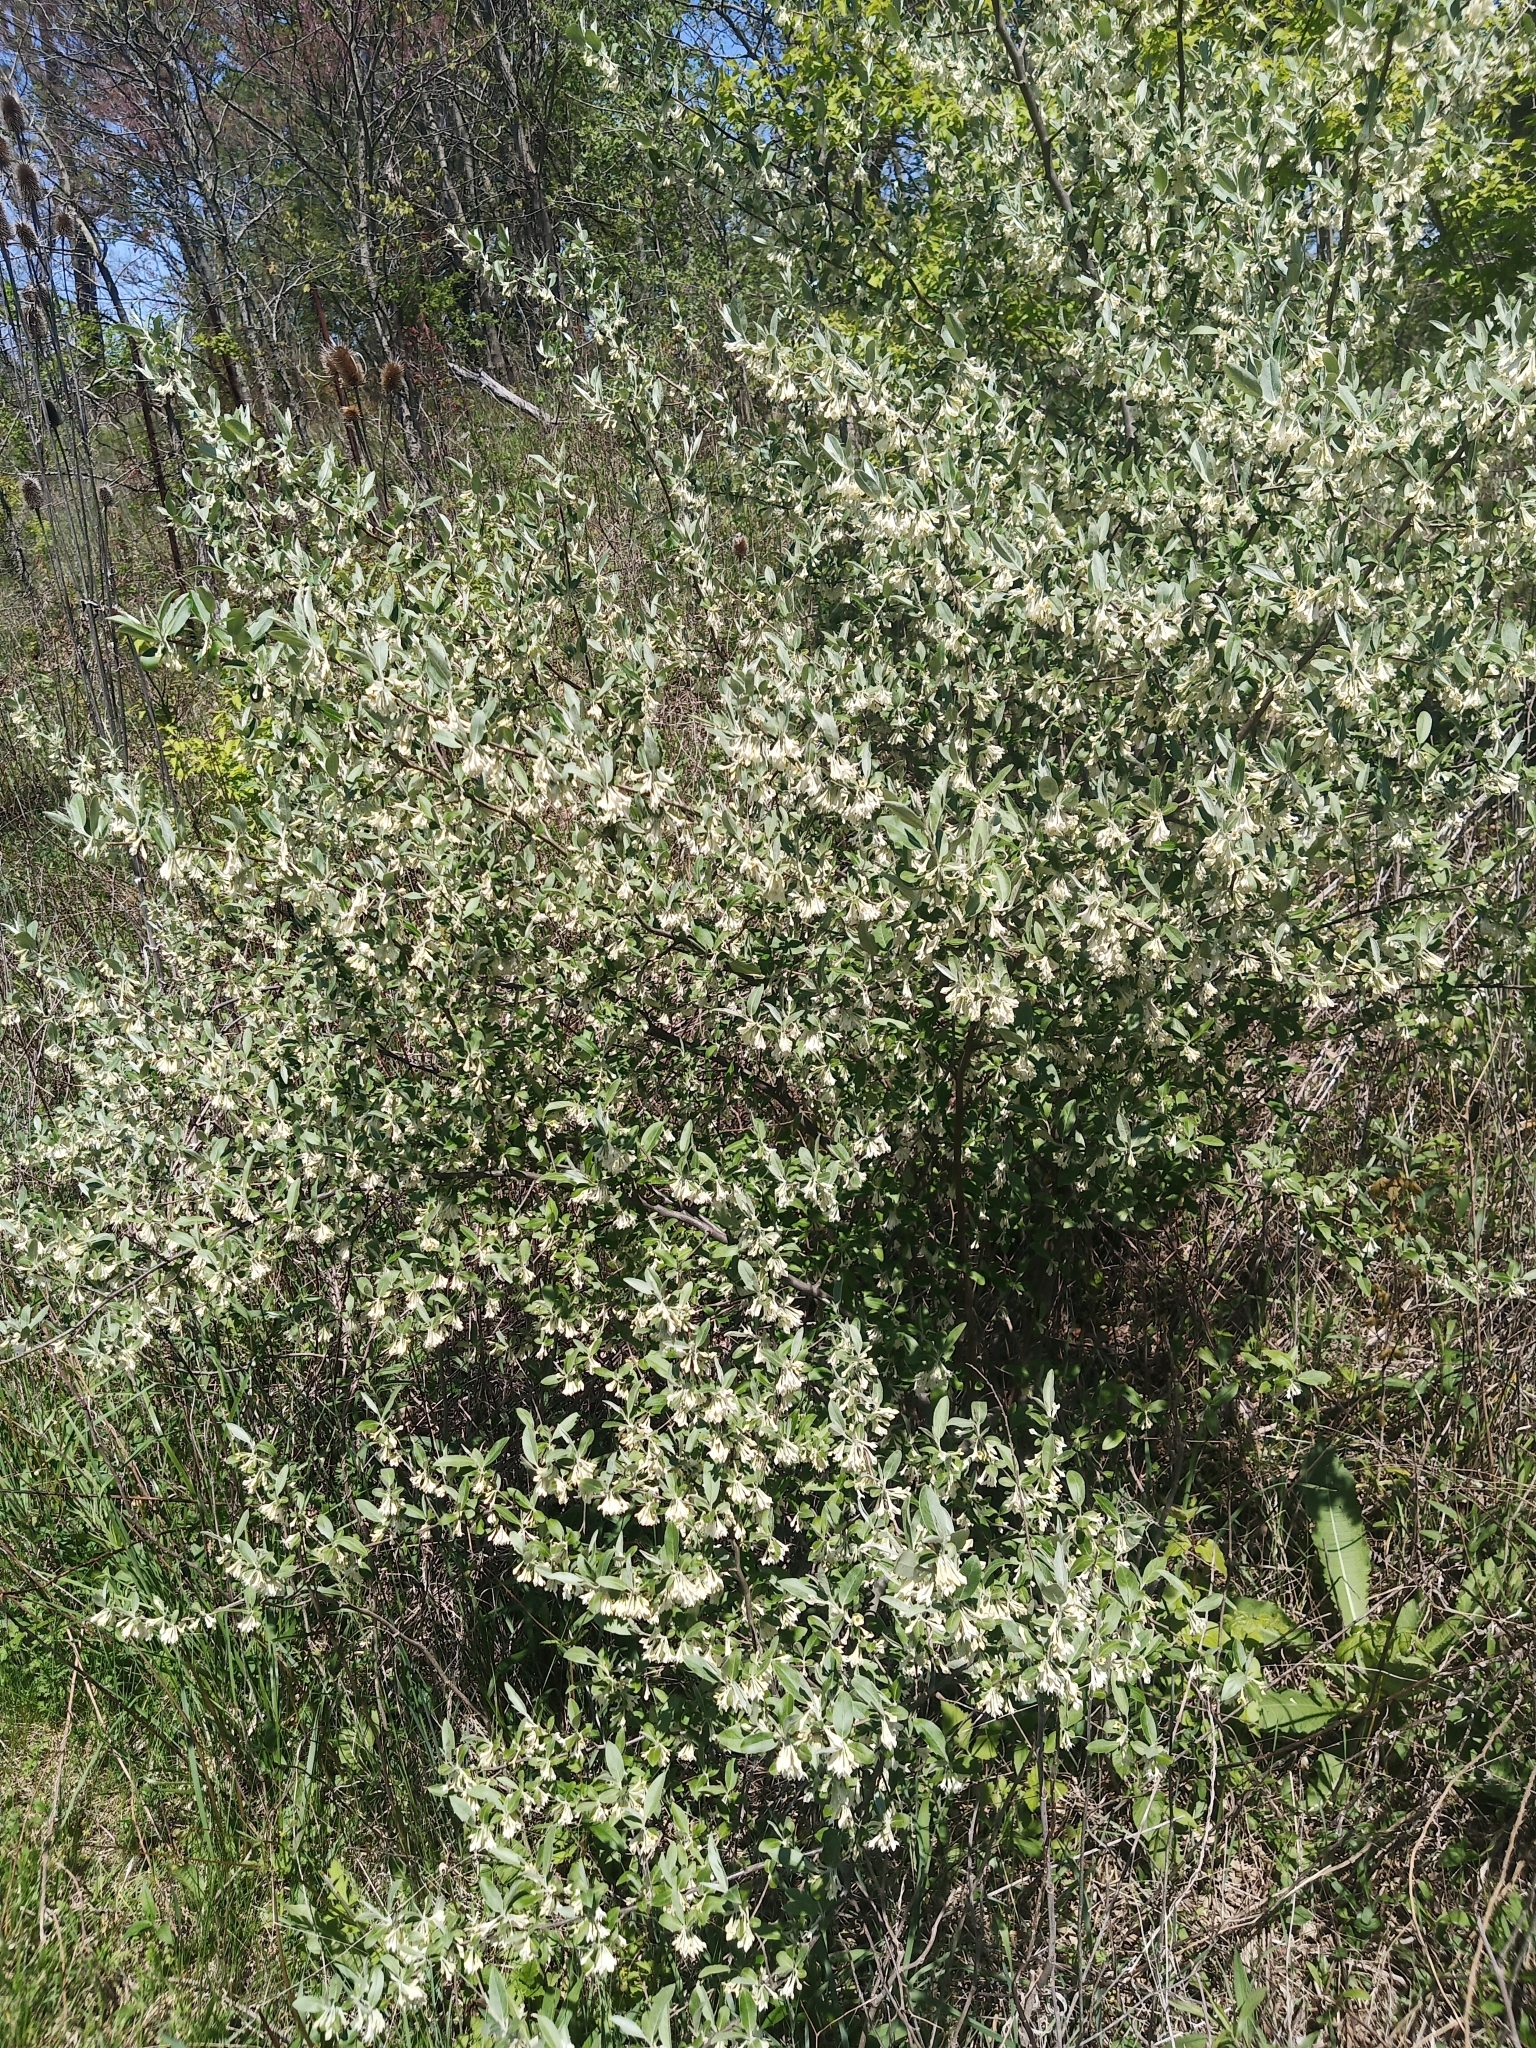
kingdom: Plantae
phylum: Tracheophyta
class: Magnoliopsida
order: Rosales
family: Elaeagnaceae
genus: Elaeagnus
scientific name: Elaeagnus umbellata
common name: Autumn olive
